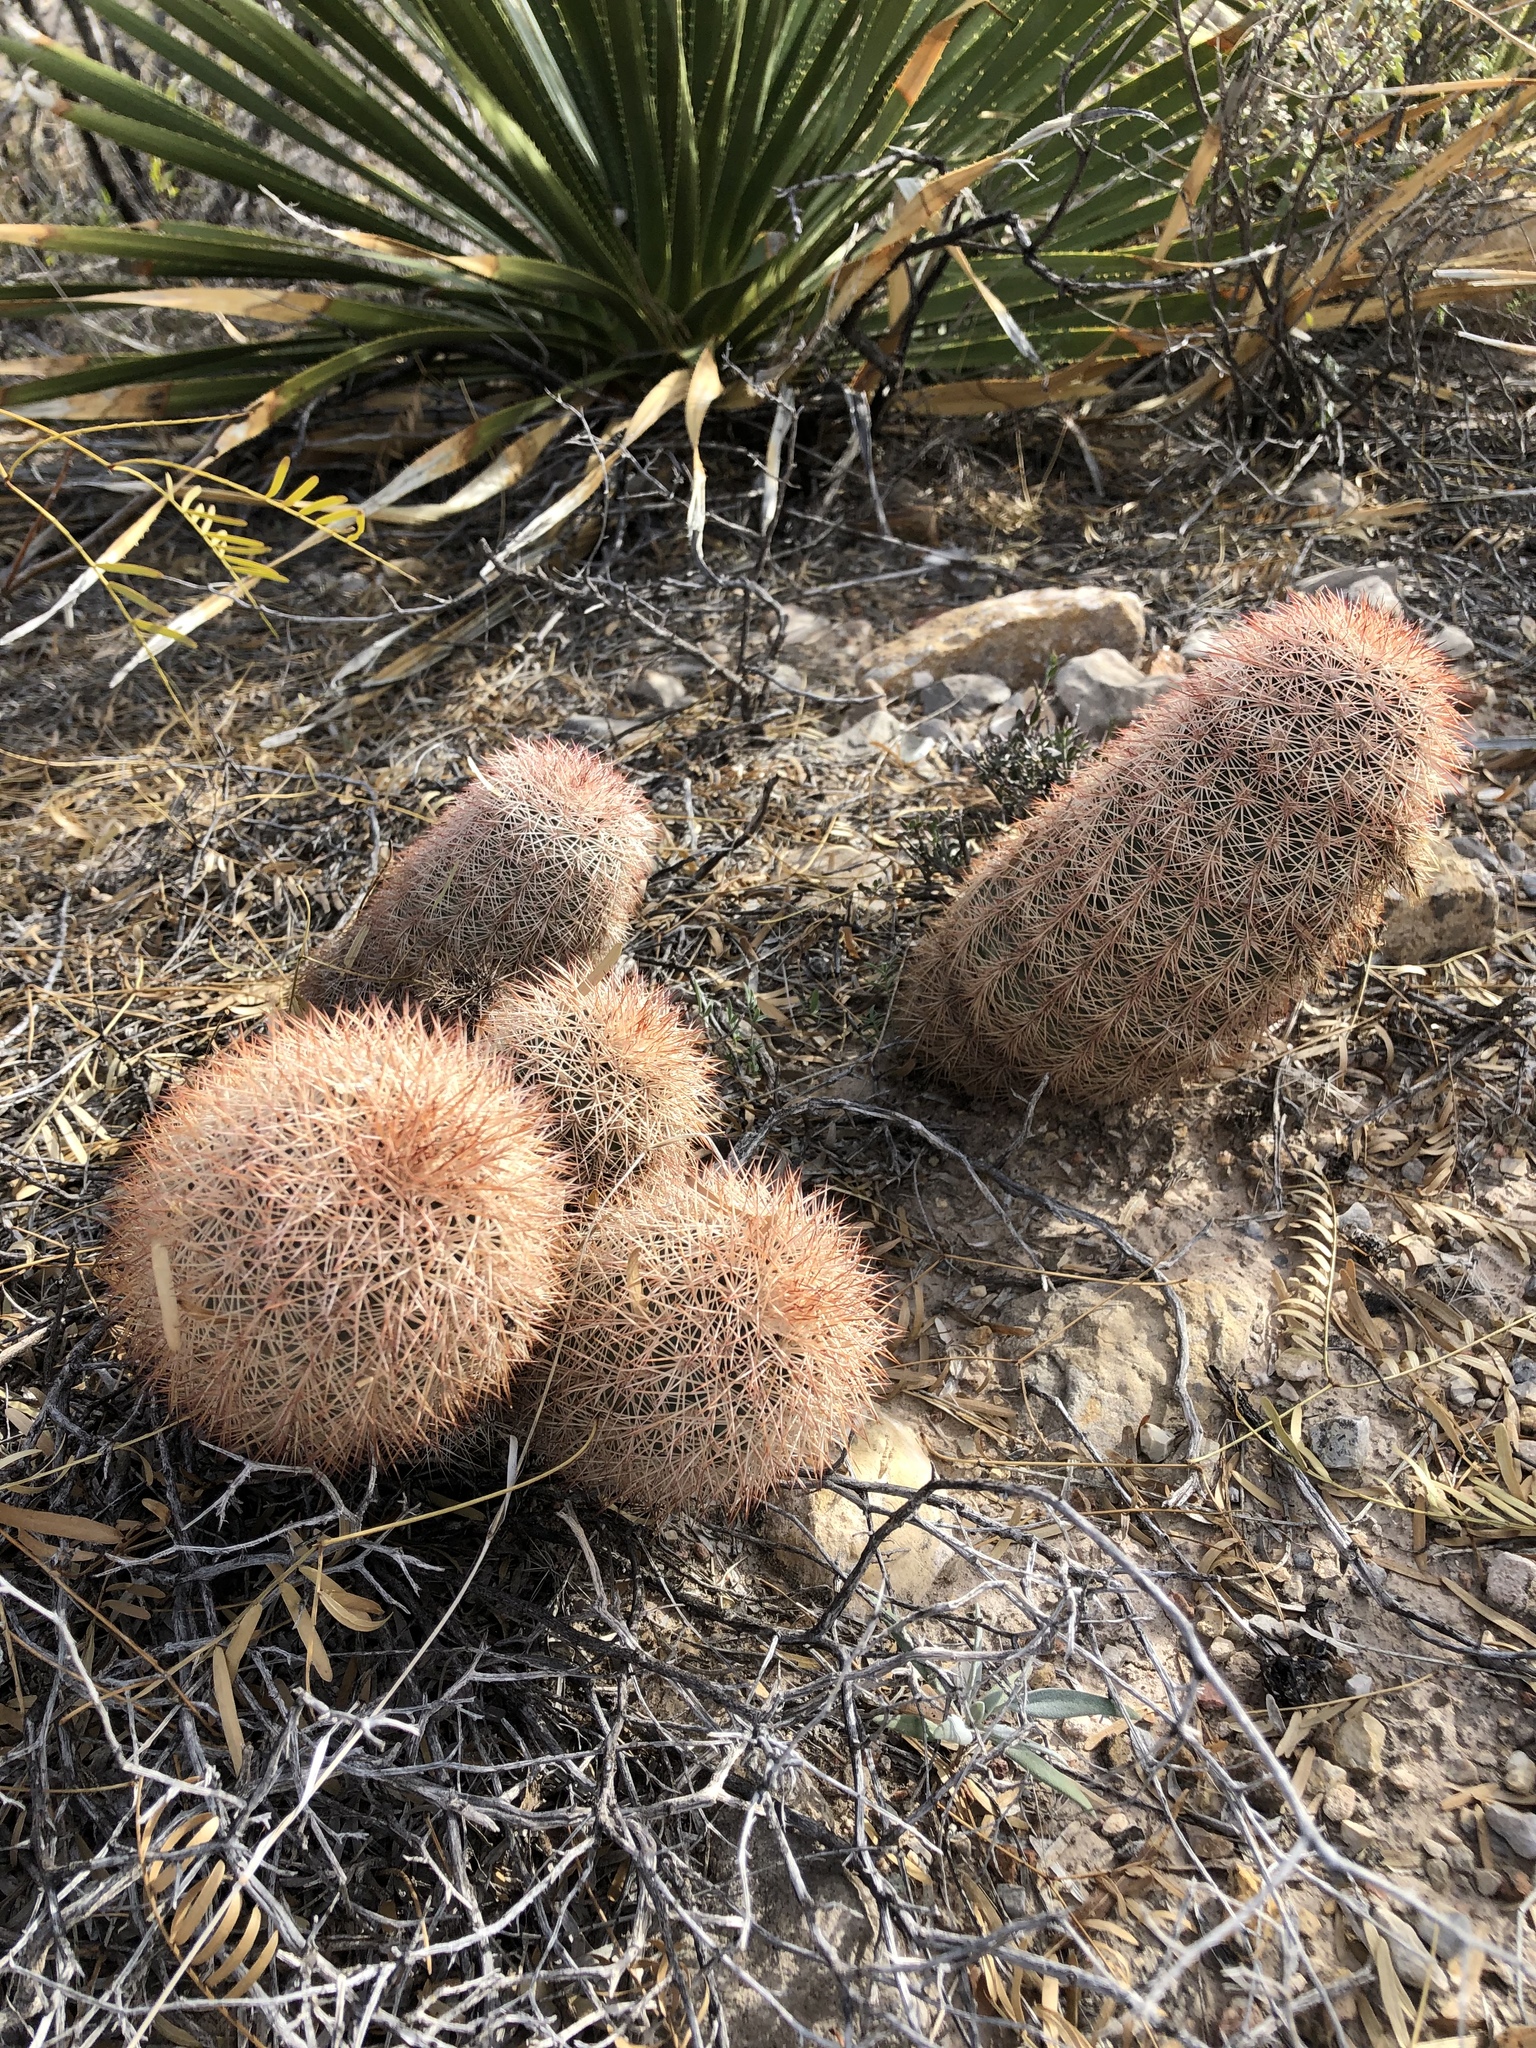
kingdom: Plantae
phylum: Tracheophyta
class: Magnoliopsida
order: Caryophyllales
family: Cactaceae
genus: Echinocereus
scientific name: Echinocereus dasyacanthus
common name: Spiny hedgehog cactus
